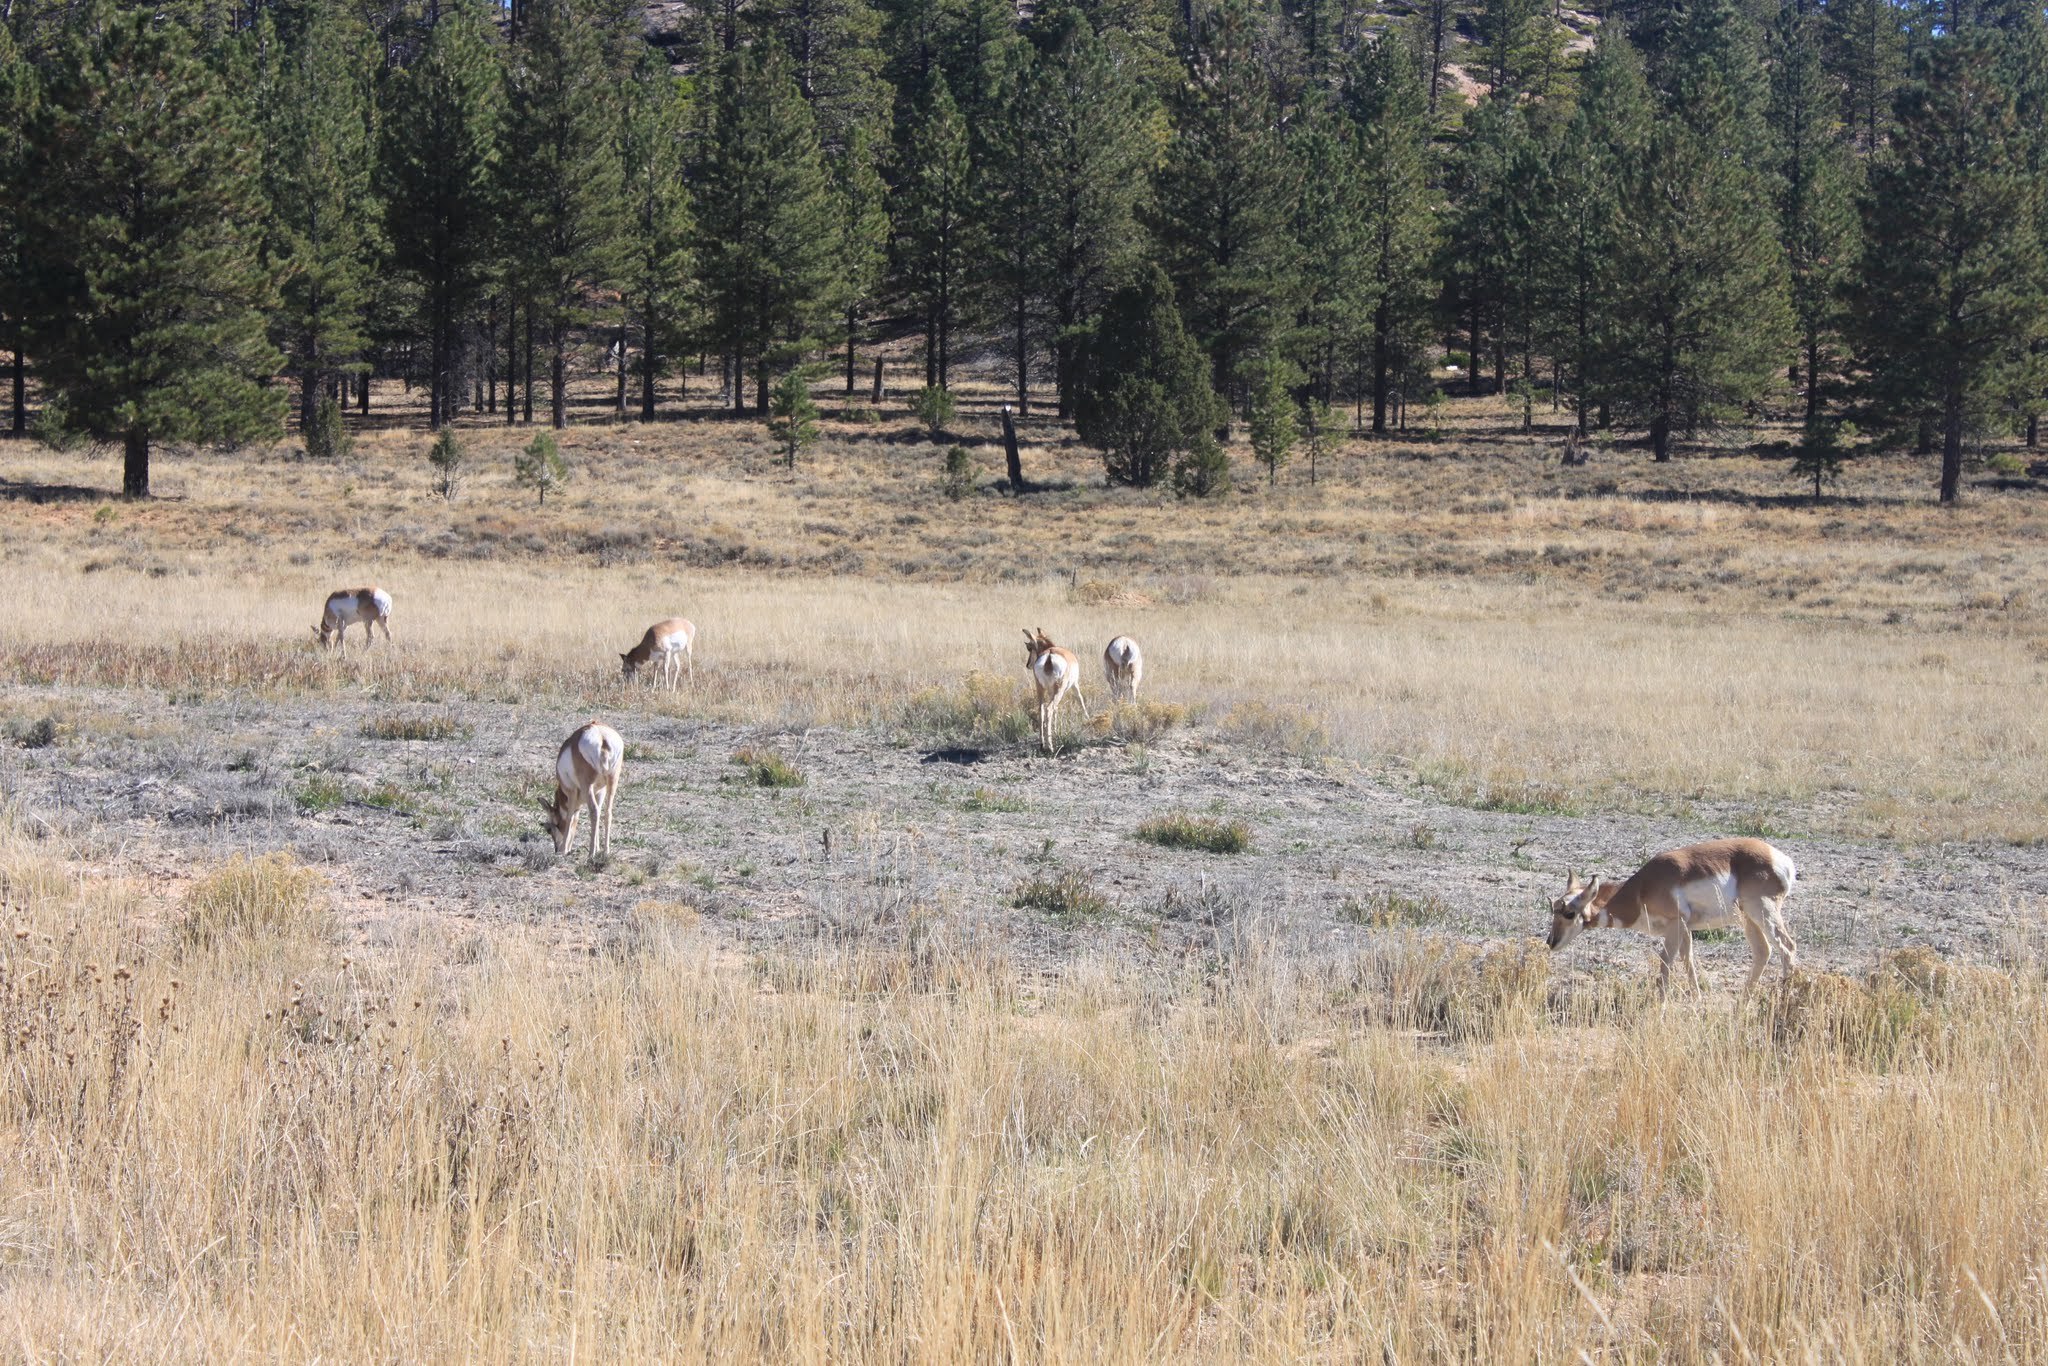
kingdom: Animalia
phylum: Chordata
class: Mammalia
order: Artiodactyla
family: Antilocapridae
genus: Antilocapra
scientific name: Antilocapra americana
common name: Pronghorn
